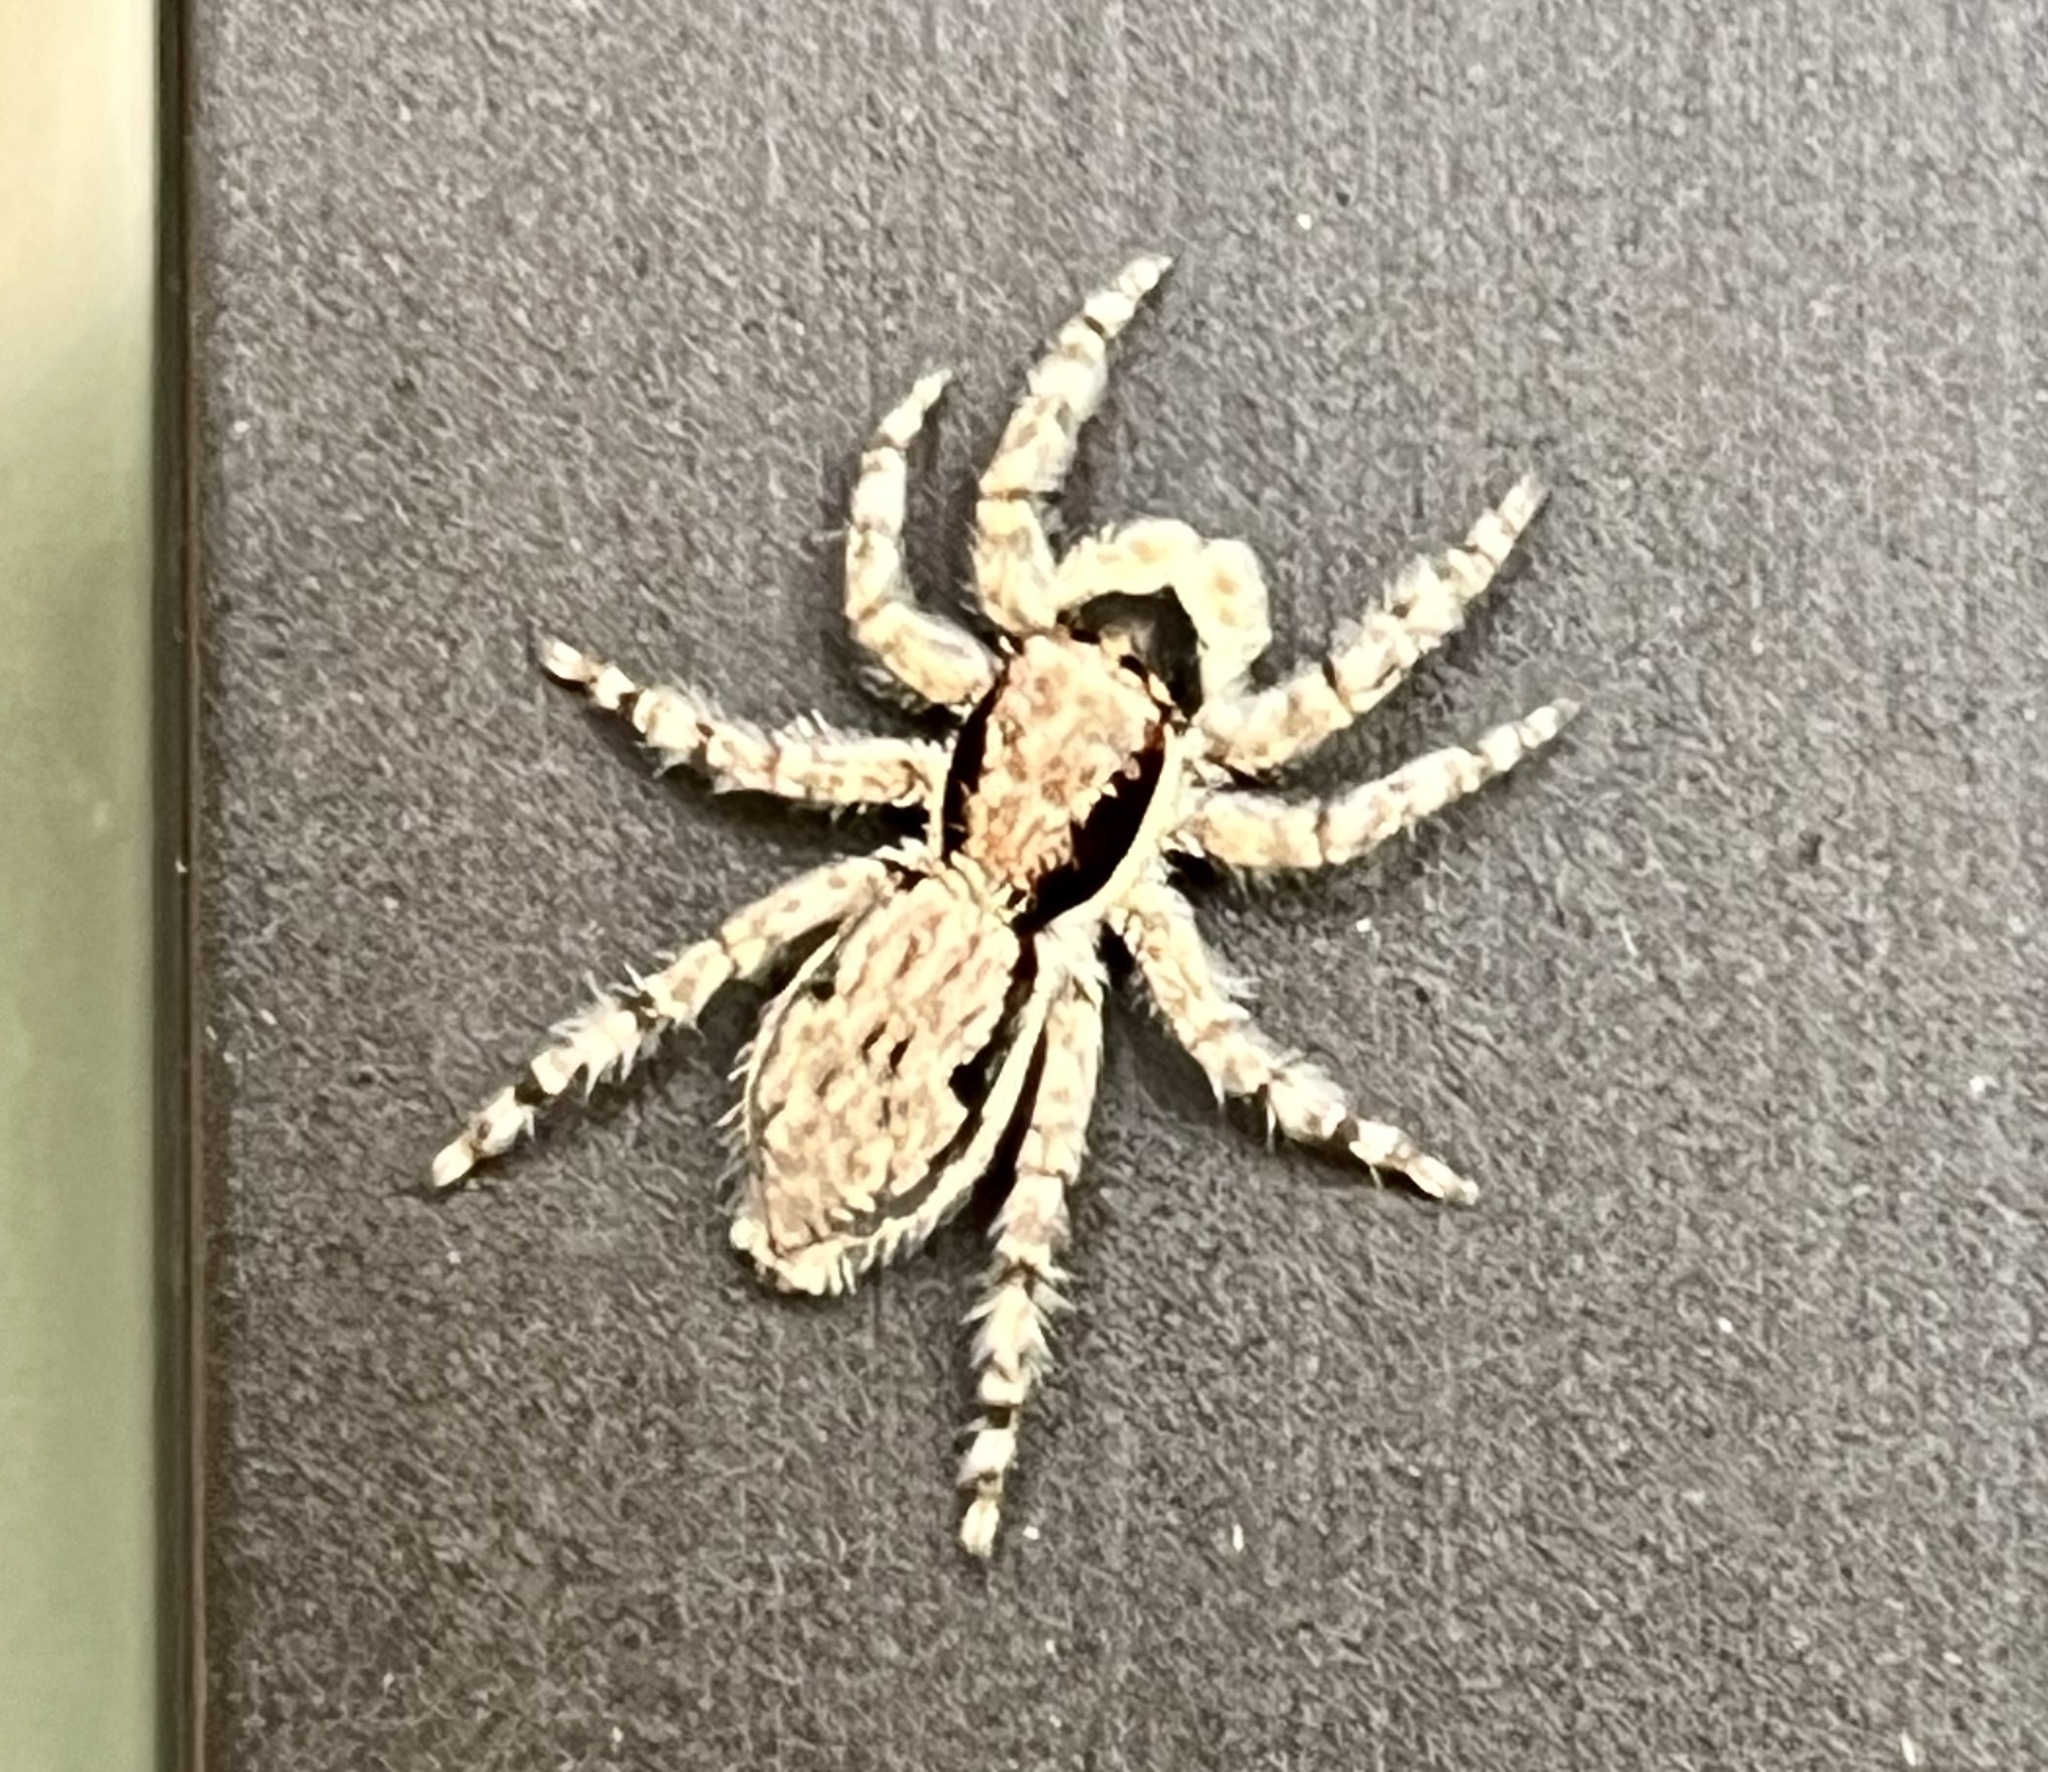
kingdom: Animalia
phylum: Arthropoda
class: Arachnida
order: Araneae
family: Salticidae
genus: Menemerus
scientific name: Menemerus bivittatus
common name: Gray wall jumper
